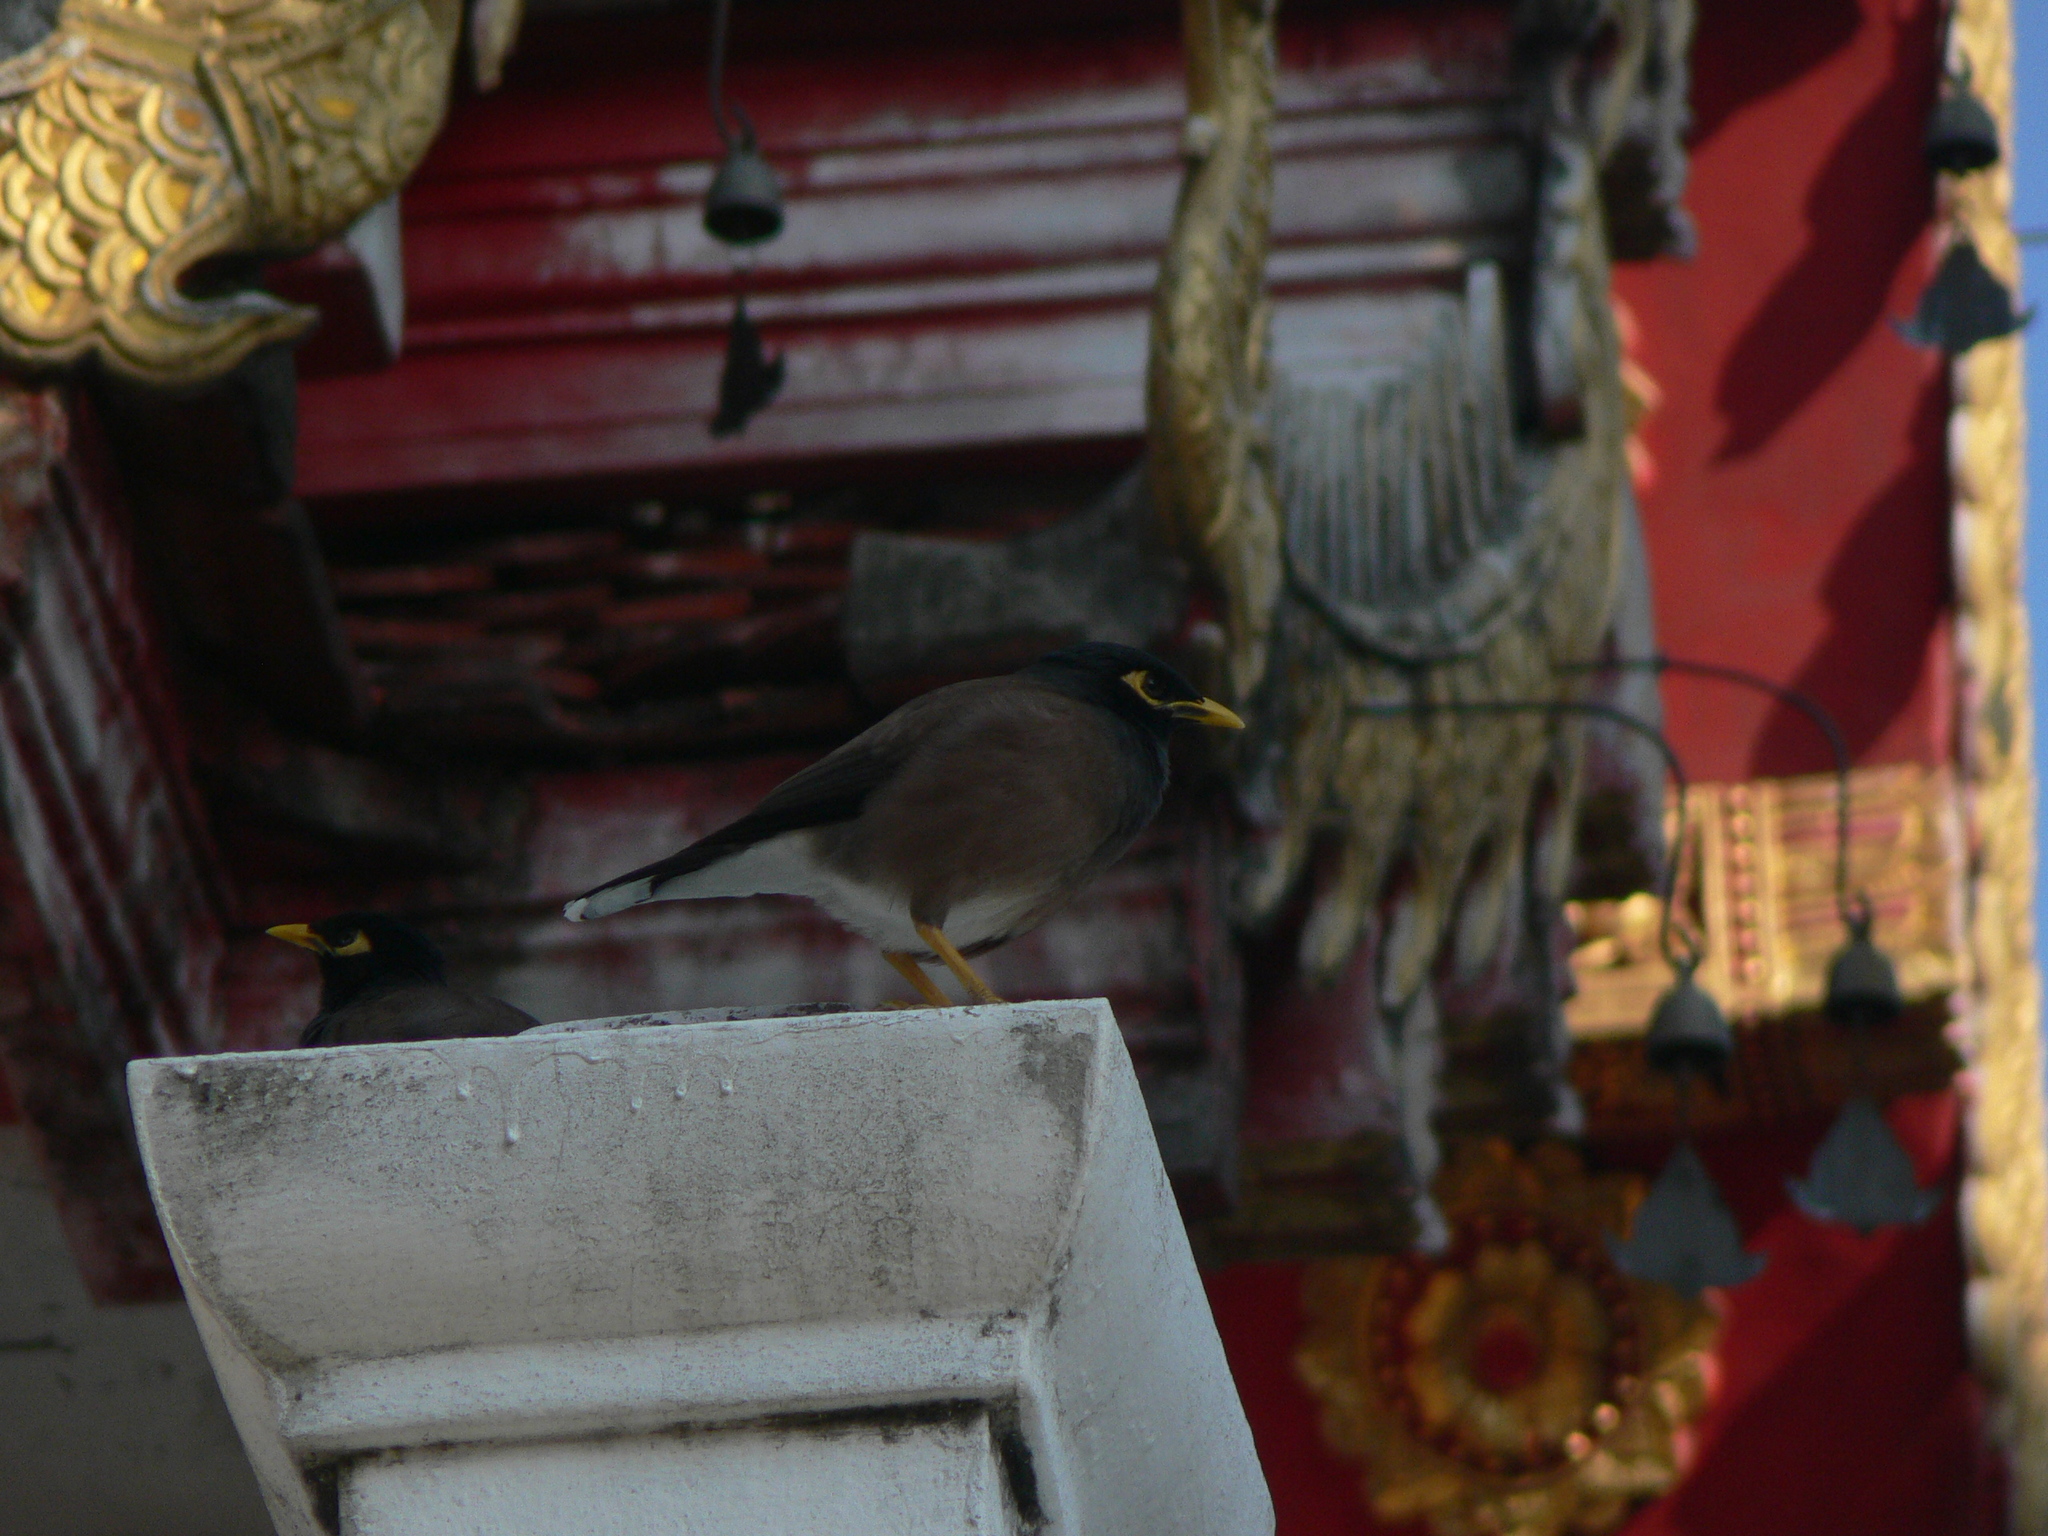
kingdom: Animalia
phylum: Chordata
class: Aves
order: Passeriformes
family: Sturnidae
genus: Acridotheres
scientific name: Acridotheres tristis
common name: Common myna
